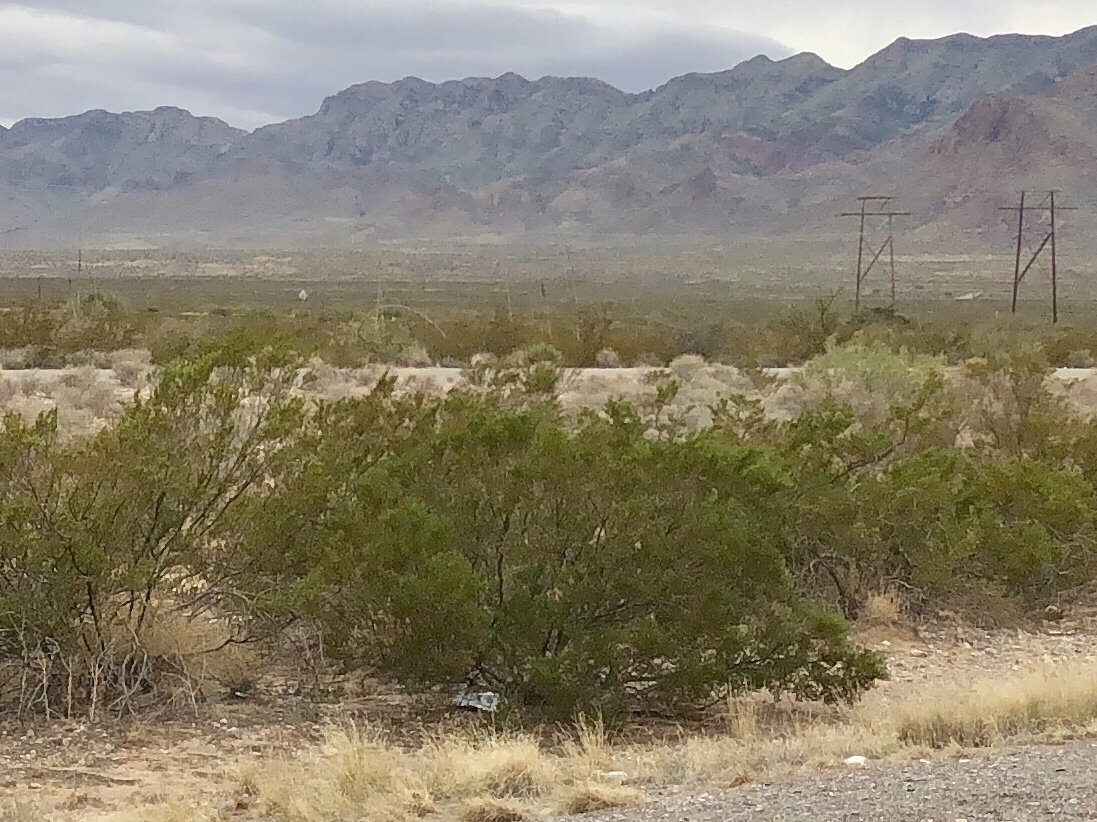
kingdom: Plantae
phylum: Tracheophyta
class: Magnoliopsida
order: Zygophyllales
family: Zygophyllaceae
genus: Larrea
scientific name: Larrea tridentata
